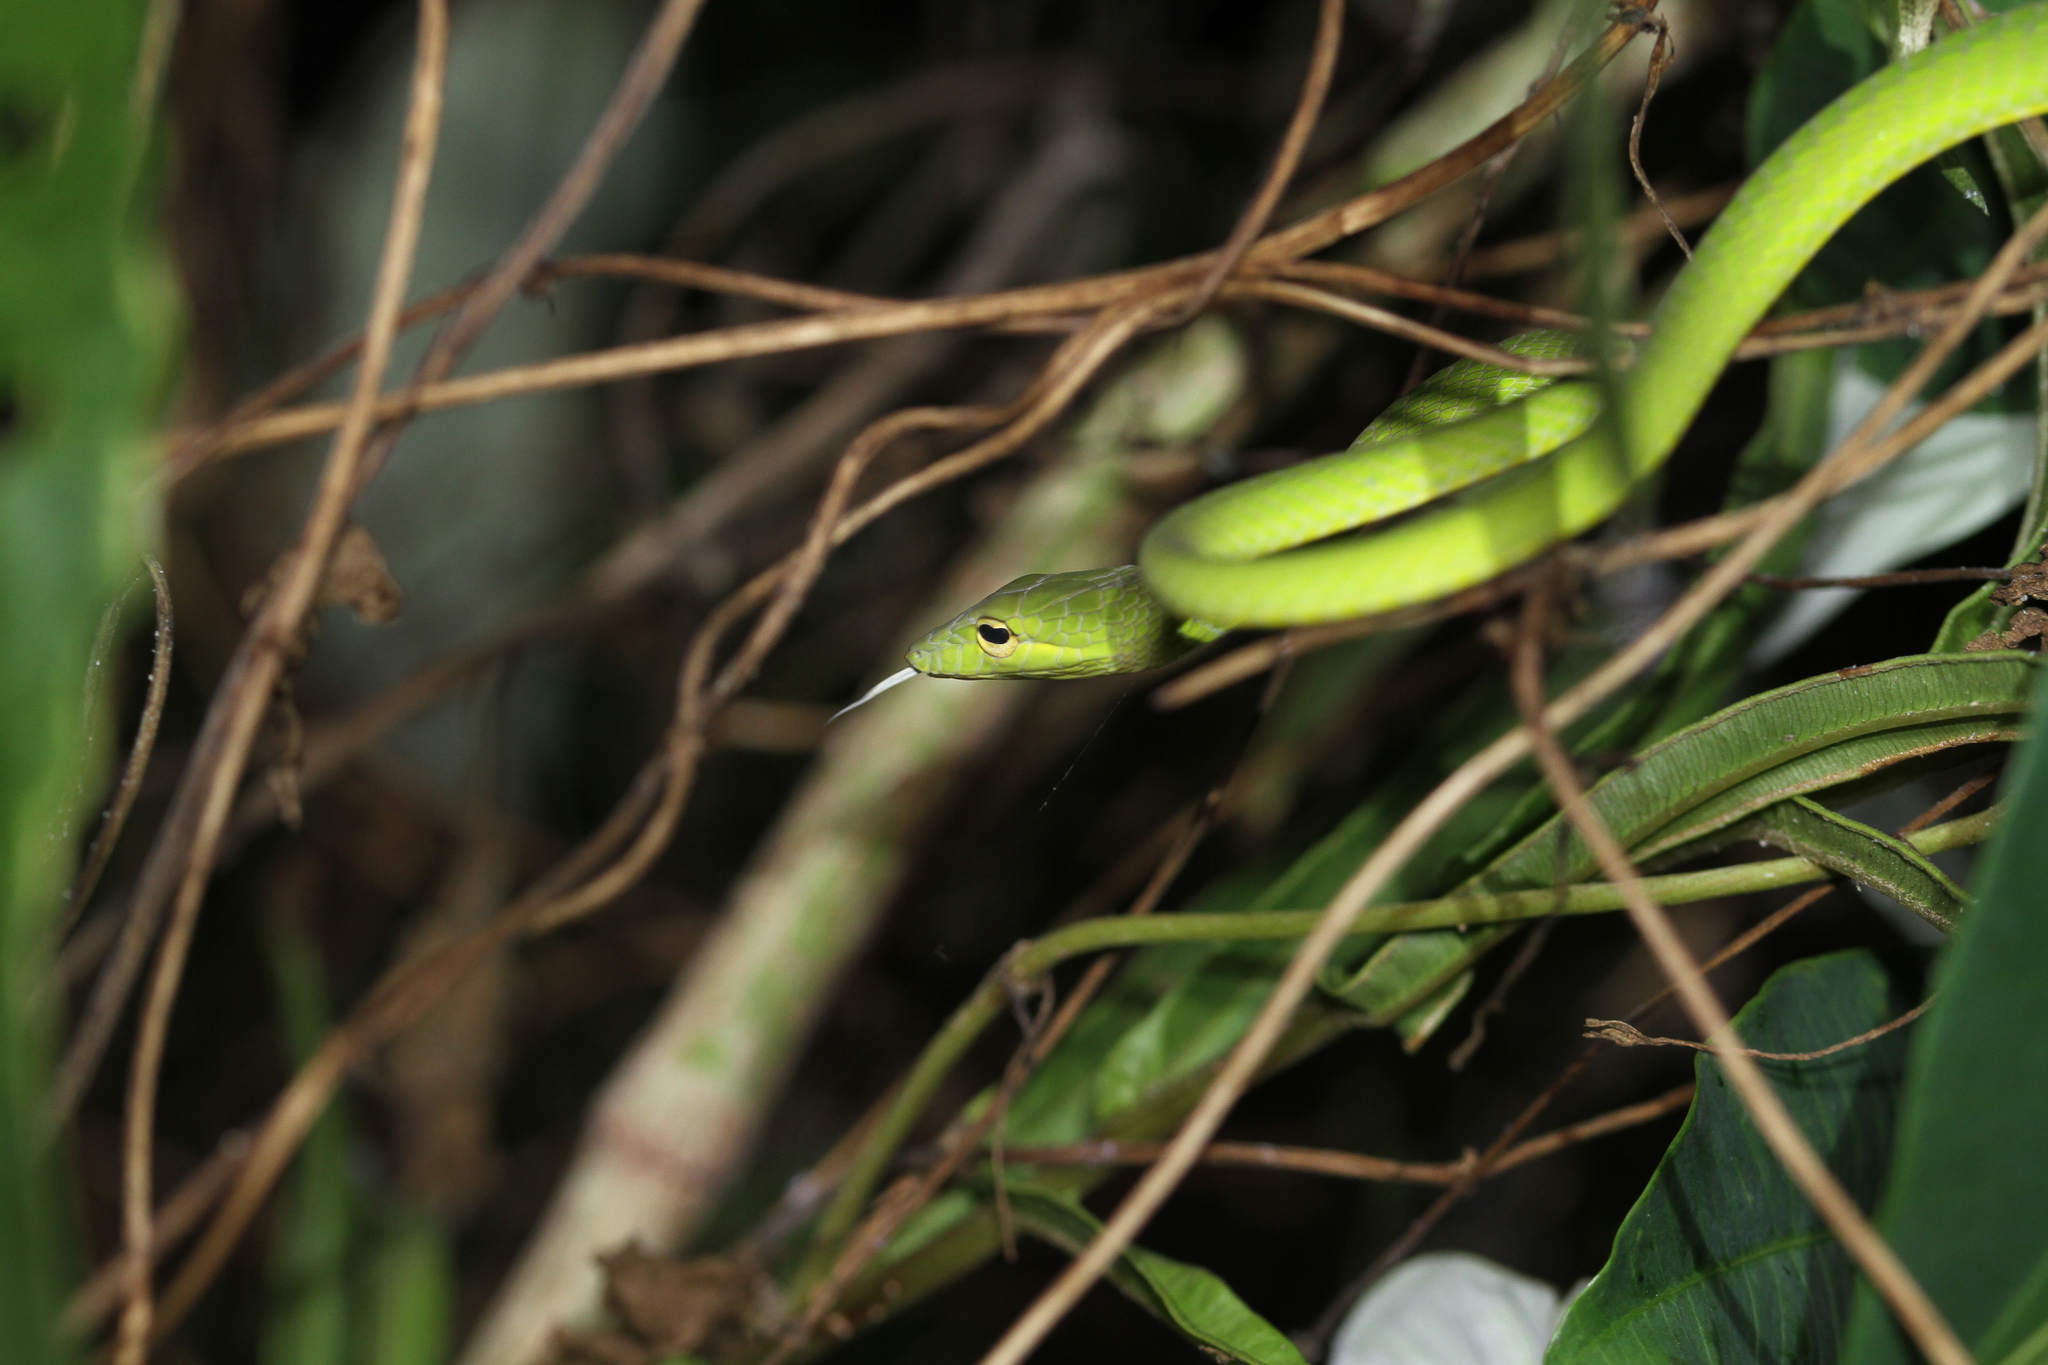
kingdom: Animalia
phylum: Chordata
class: Squamata
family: Colubridae
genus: Ahaetulla
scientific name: Ahaetulla prasina
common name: Oriental whip snake
